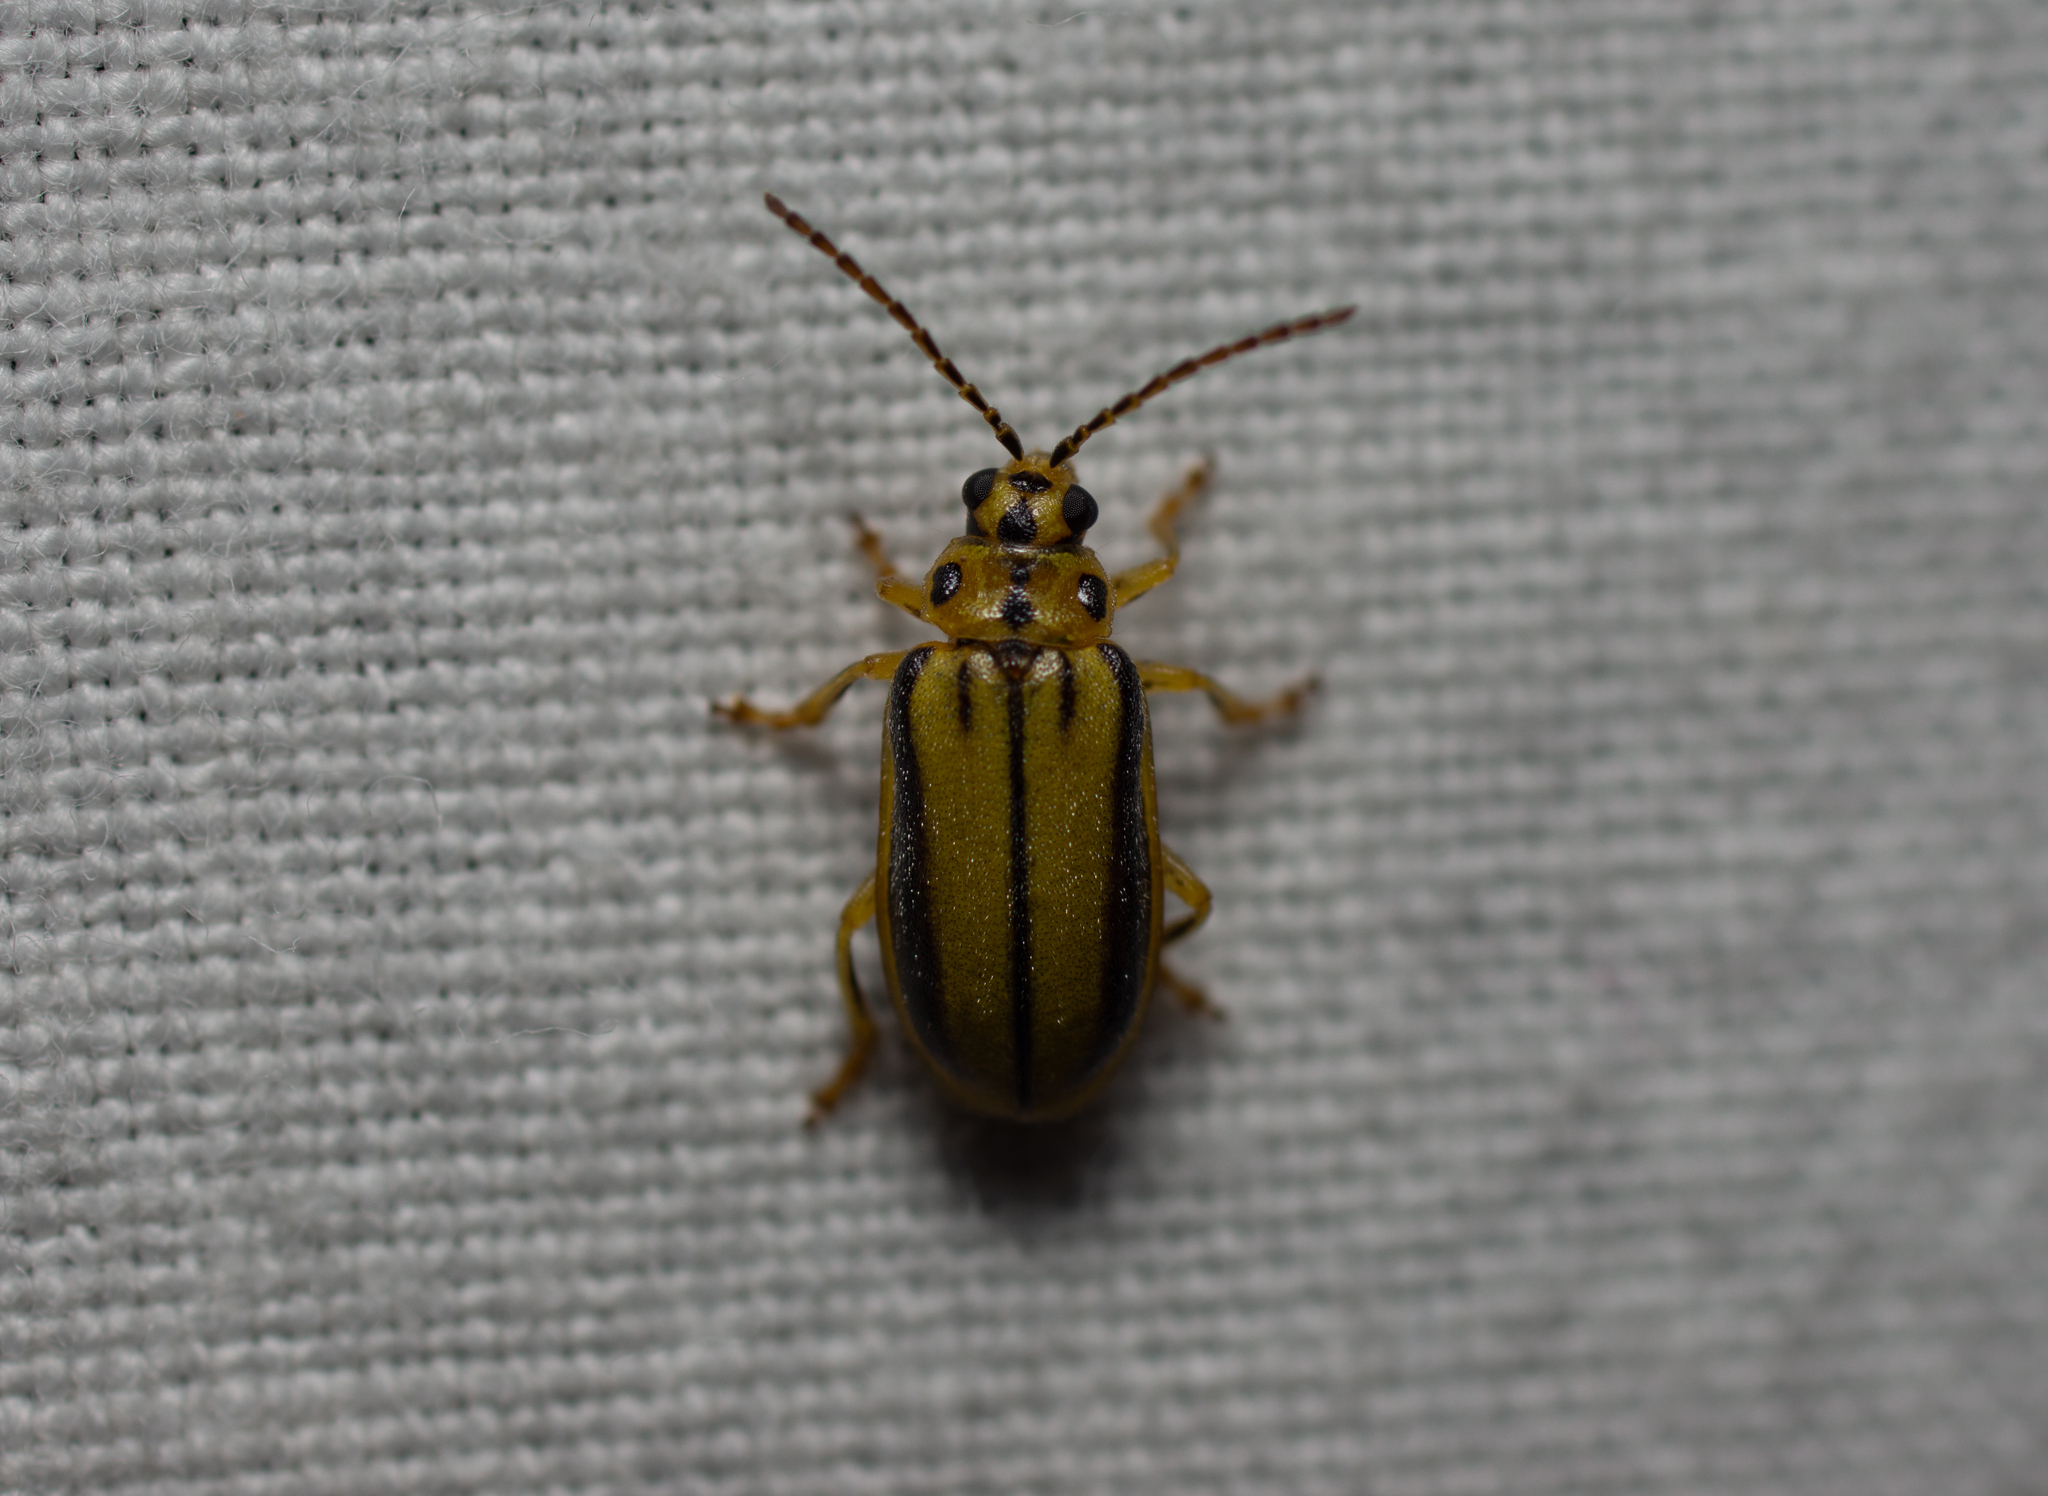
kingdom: Animalia
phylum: Arthropoda
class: Insecta
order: Coleoptera
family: Chrysomelidae
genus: Xanthogaleruca
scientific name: Xanthogaleruca luteola
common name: Elm leaf beetle
